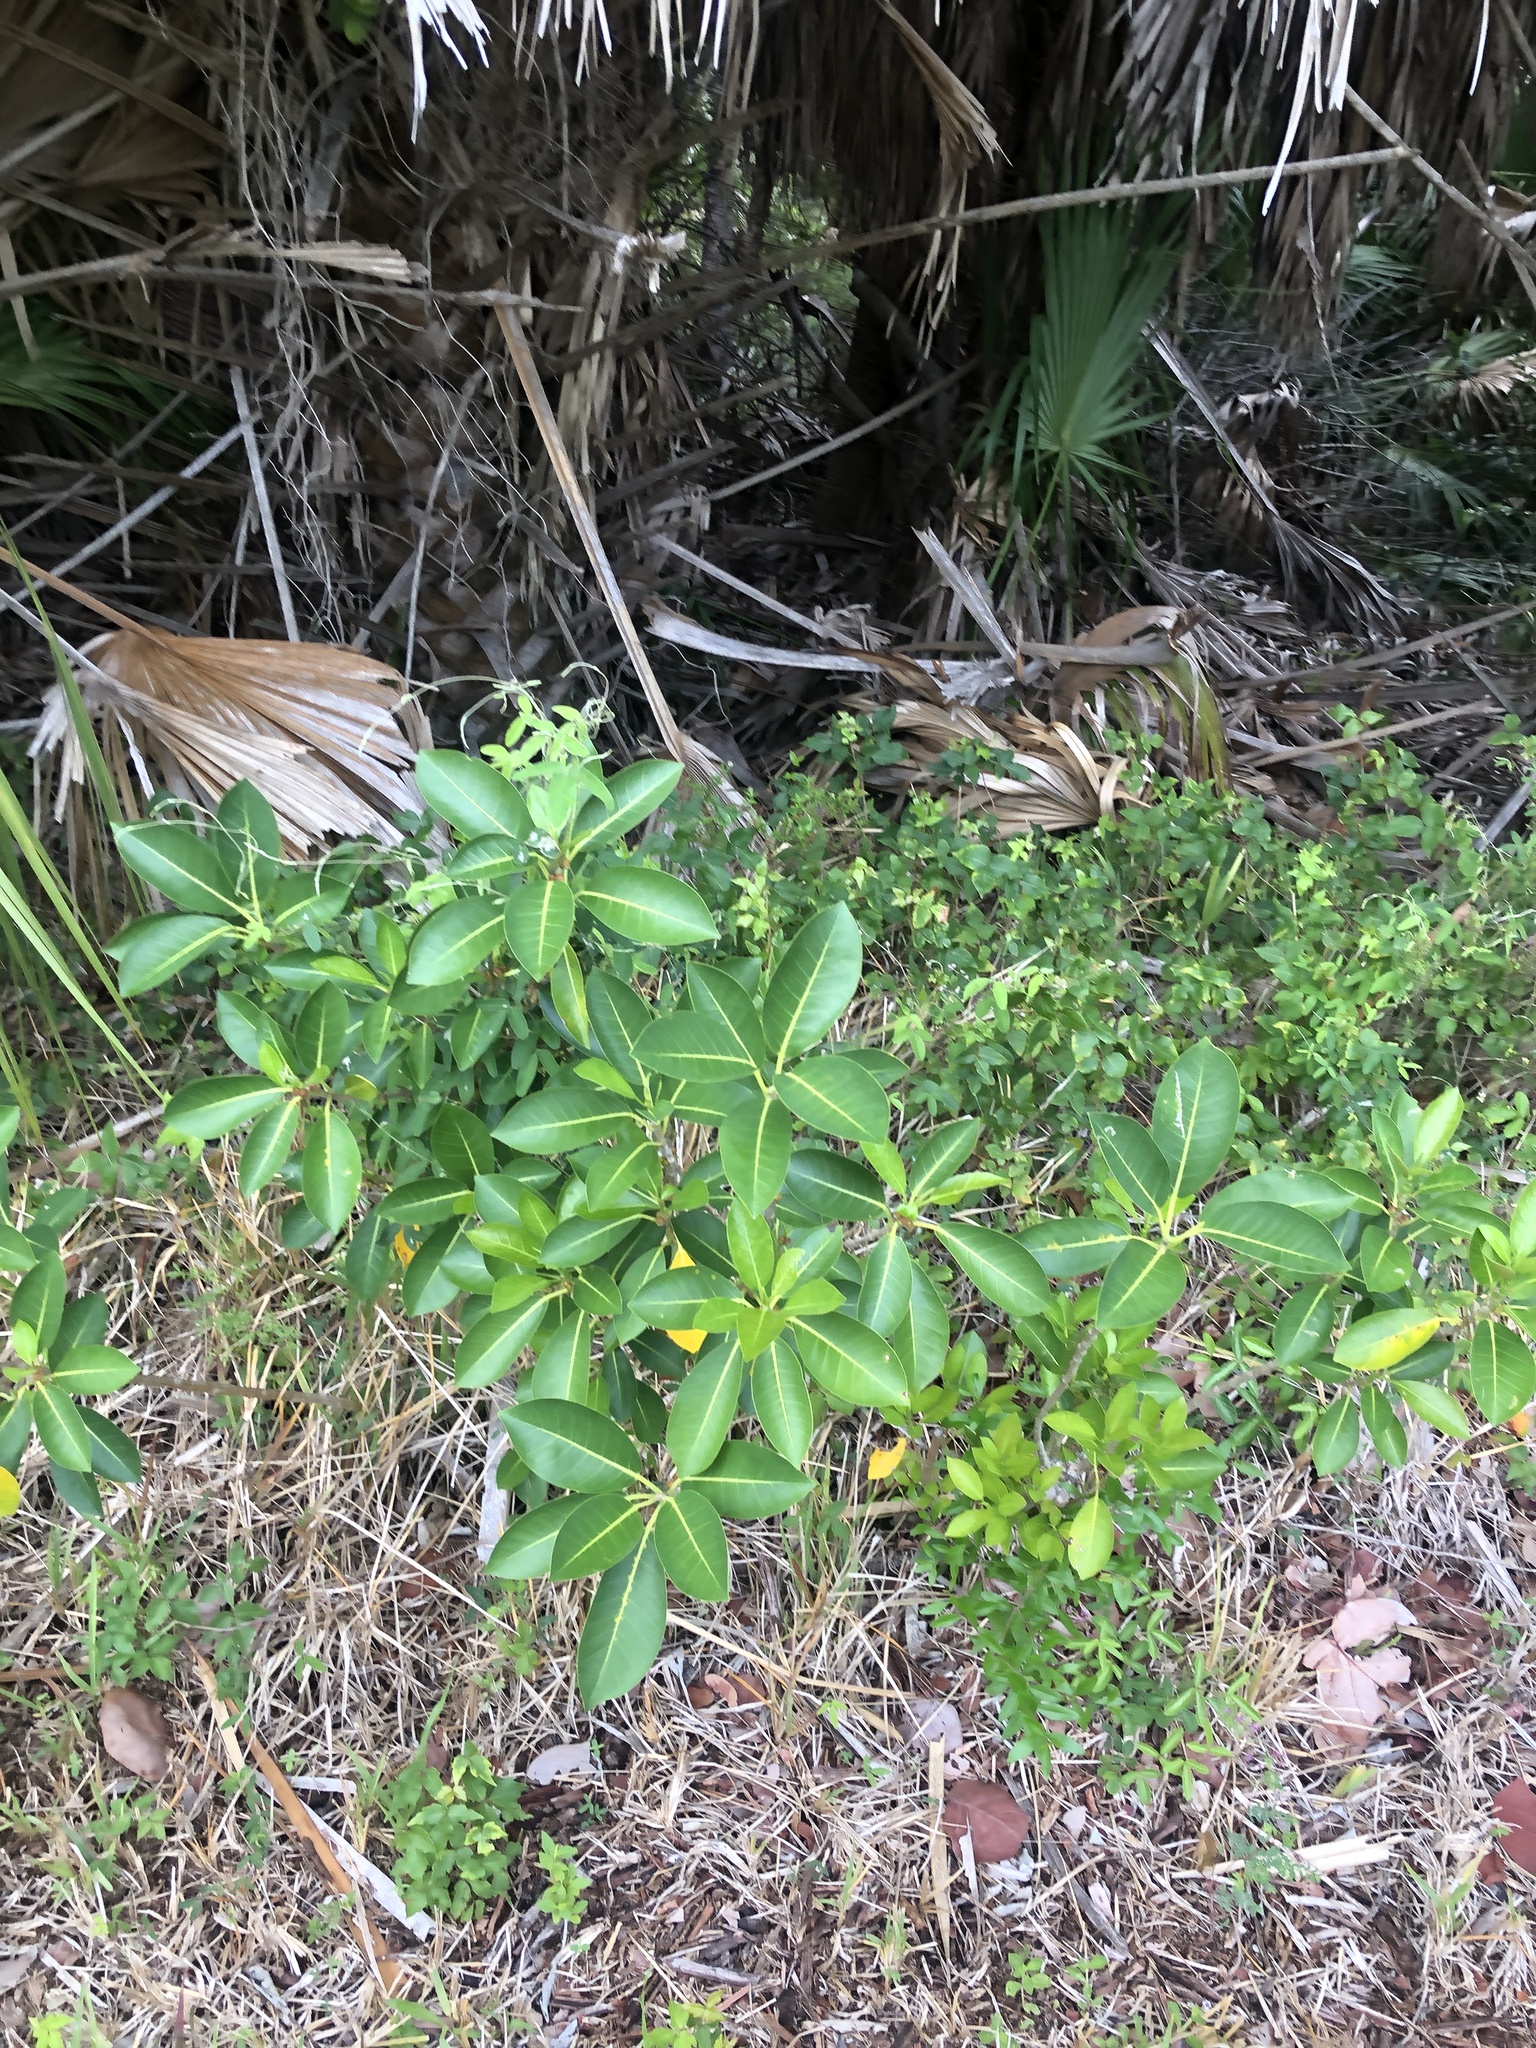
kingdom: Plantae
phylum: Tracheophyta
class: Magnoliopsida
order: Rosales
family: Moraceae
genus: Ficus
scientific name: Ficus aurea
